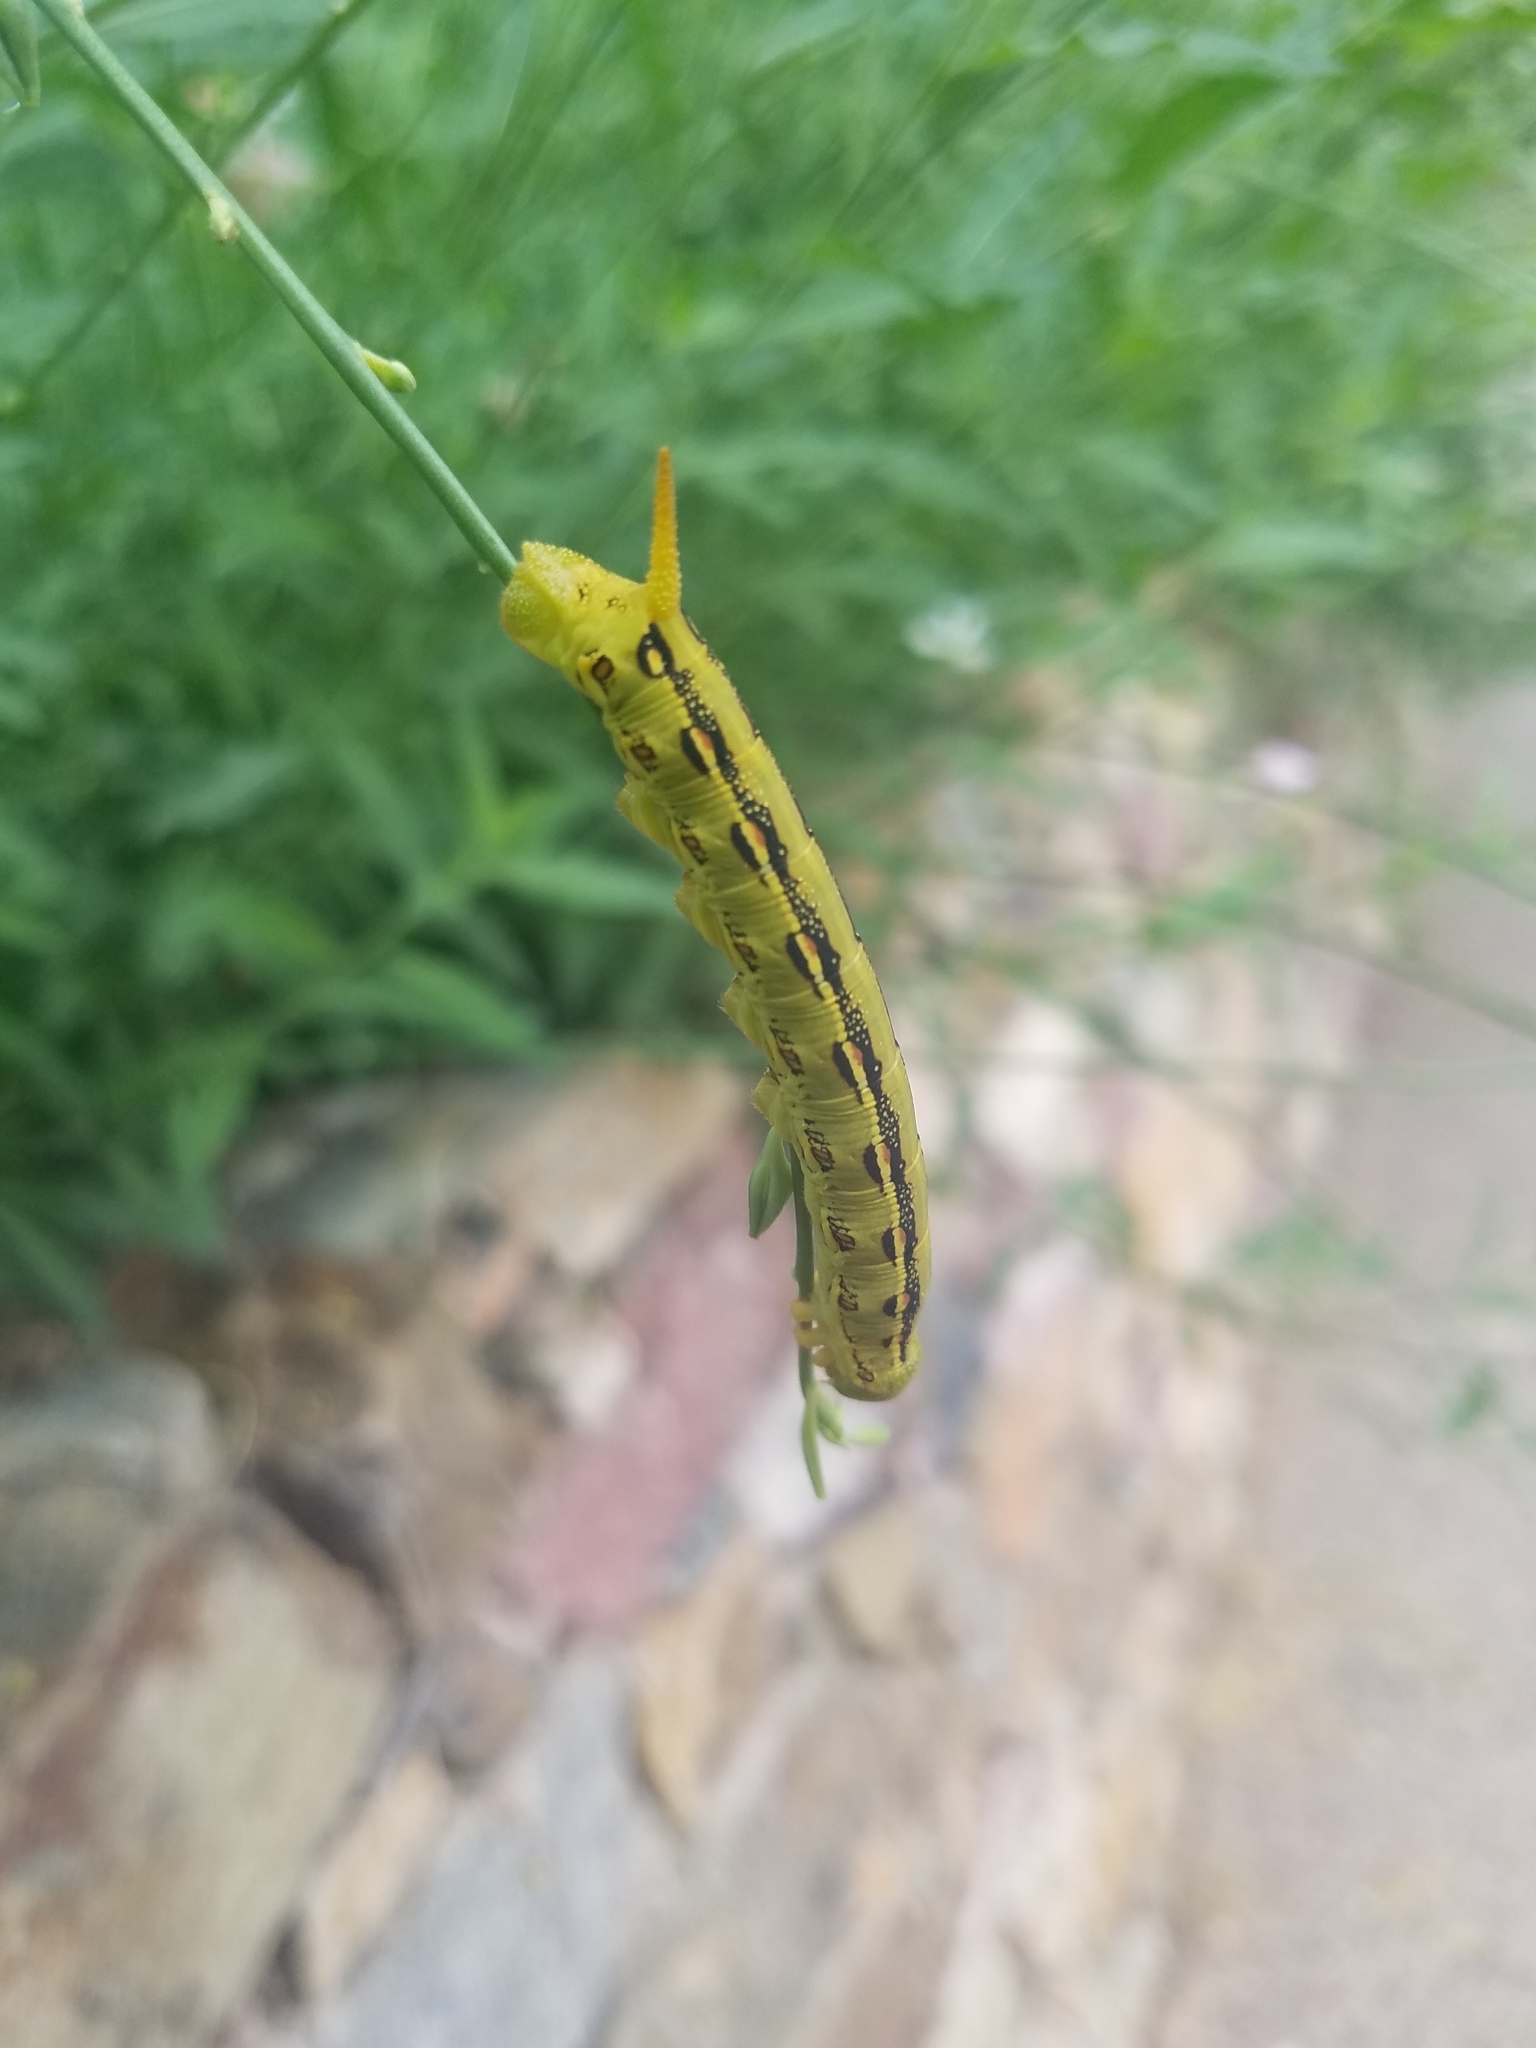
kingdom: Animalia
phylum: Arthropoda
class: Insecta
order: Lepidoptera
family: Sphingidae
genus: Hyles
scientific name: Hyles lineata
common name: White-lined sphinx
